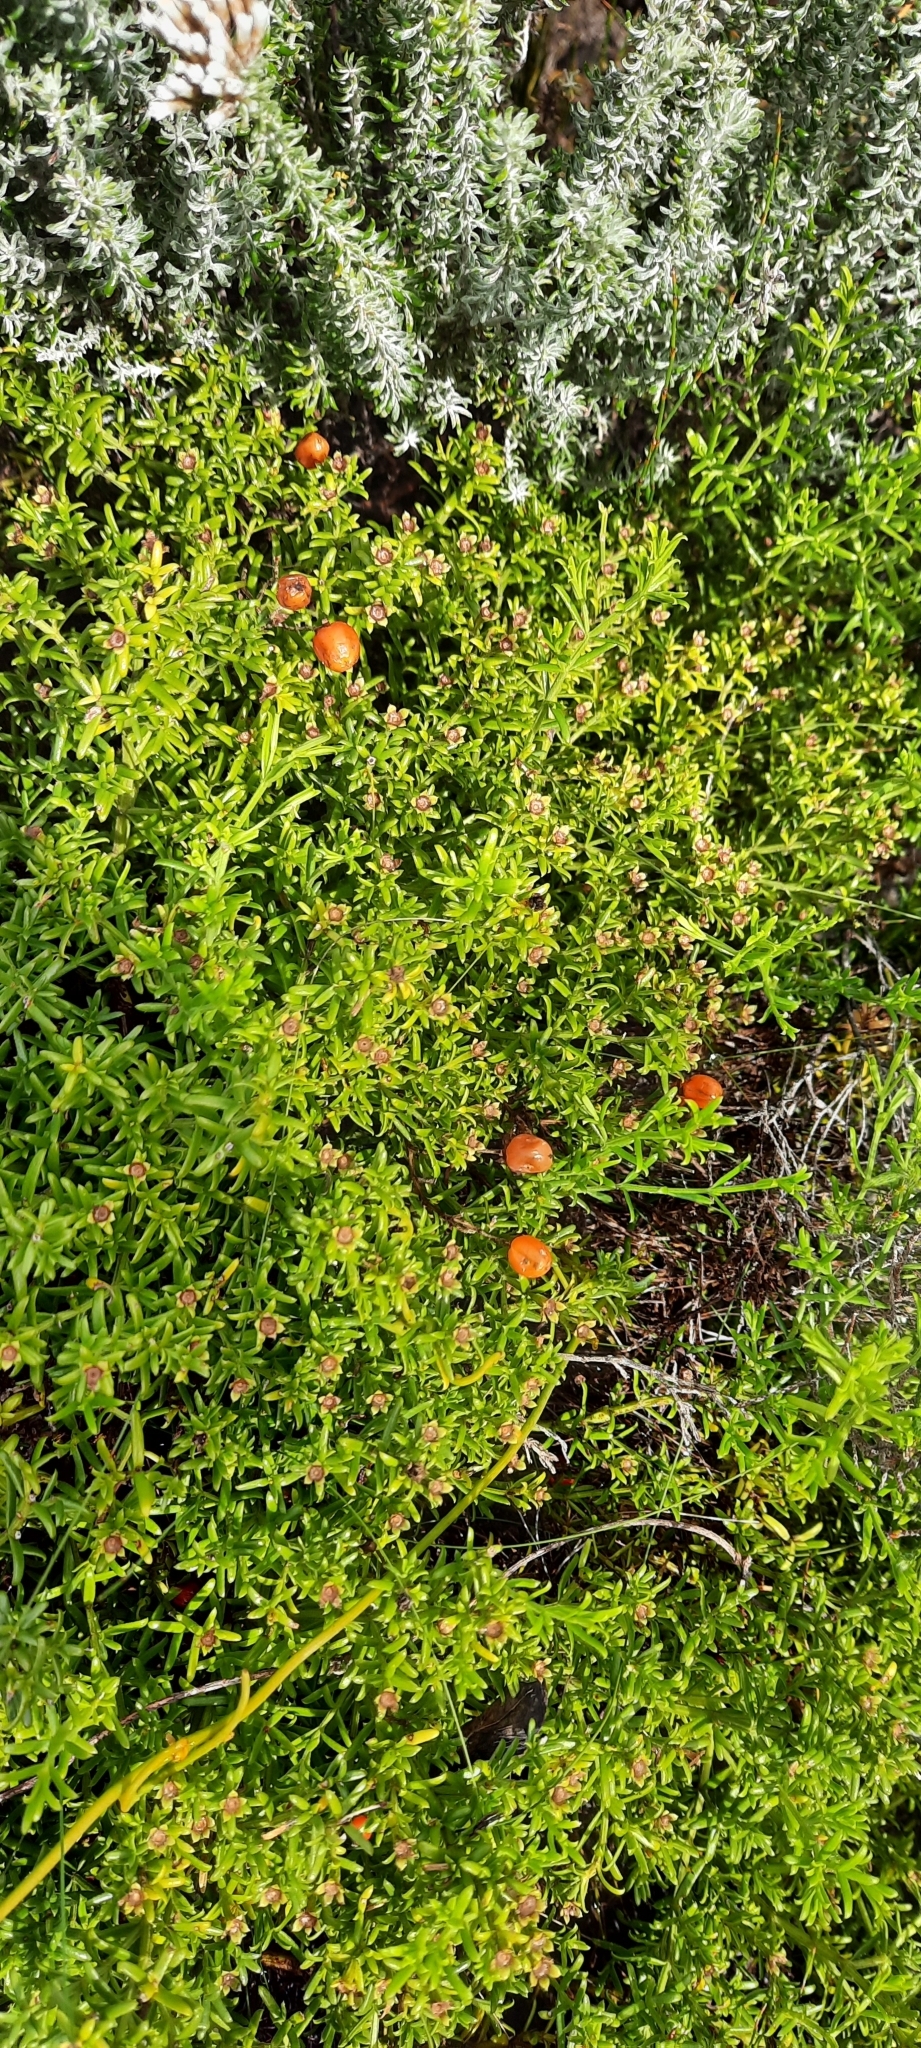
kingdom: Plantae
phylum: Tracheophyta
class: Magnoliopsida
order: Gentianales
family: Gentianaceae
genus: Chironia
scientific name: Chironia baccifera
